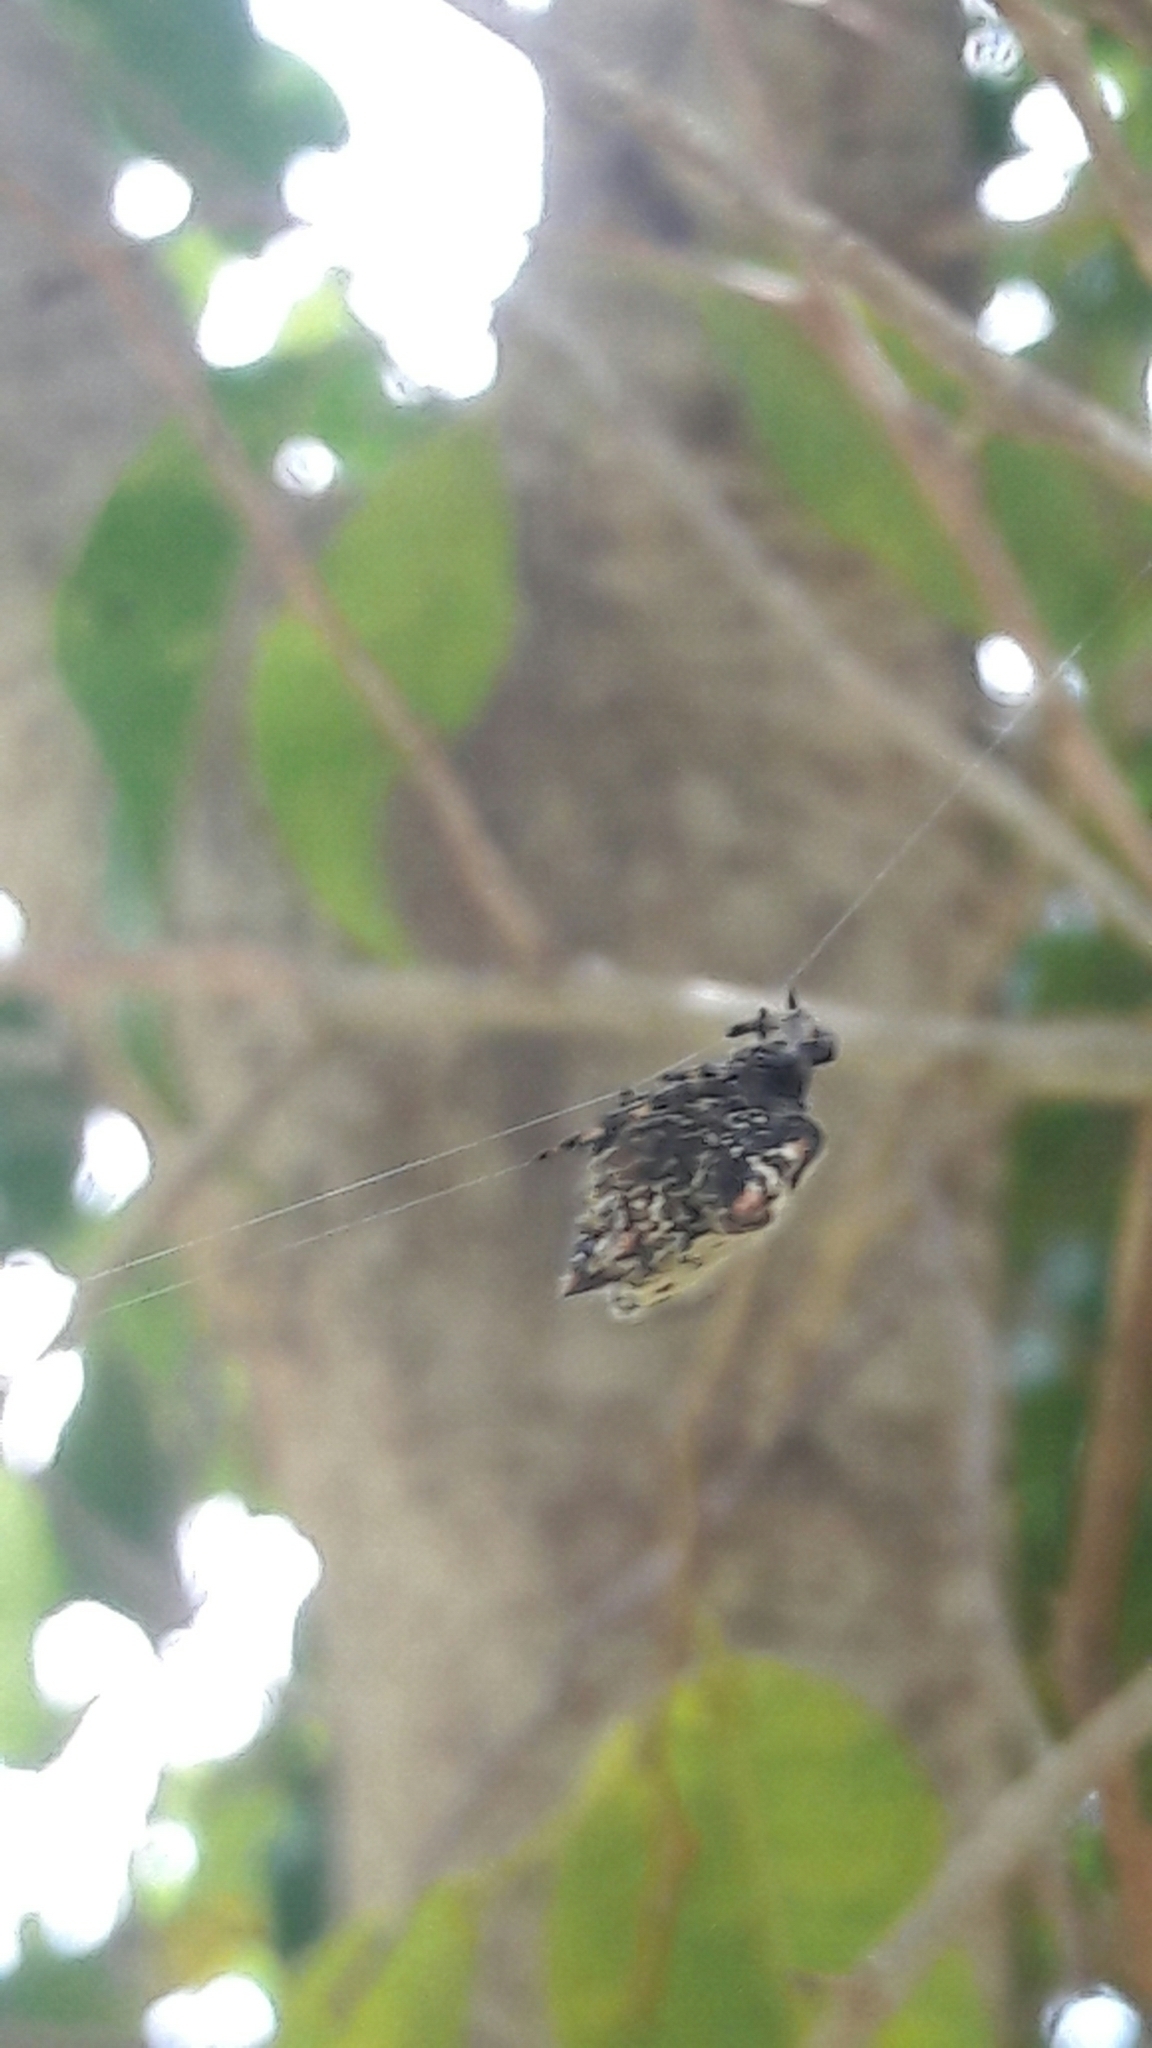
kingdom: Animalia
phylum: Arthropoda
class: Arachnida
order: Araneae
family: Araneidae
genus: Gasteracantha
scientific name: Gasteracantha cancriformis
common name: Orb weavers
